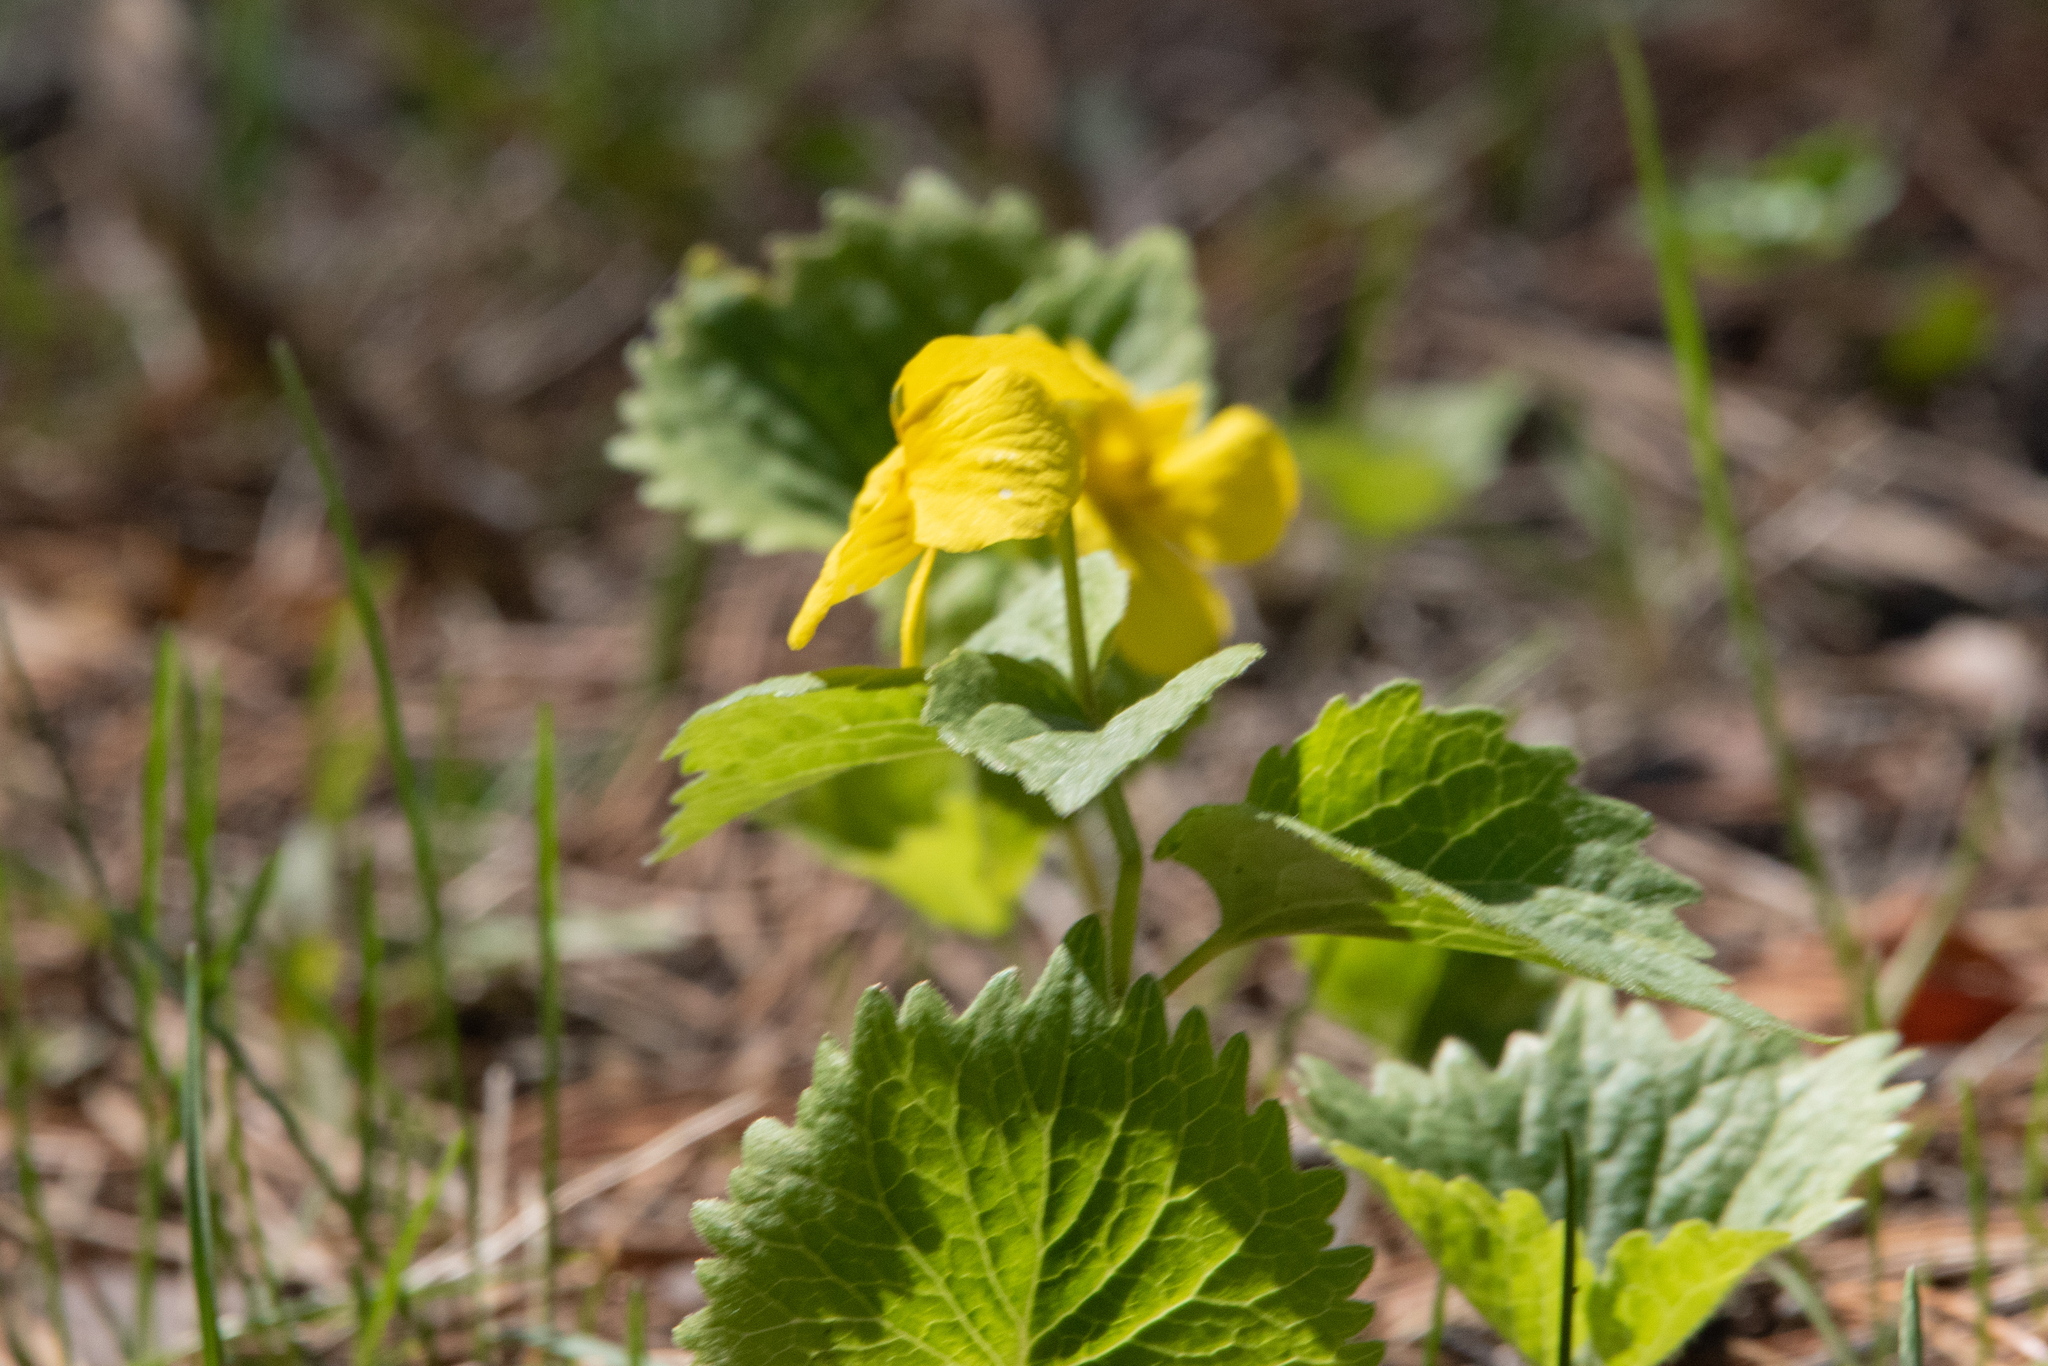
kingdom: Plantae
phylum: Tracheophyta
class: Magnoliopsida
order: Malpighiales
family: Violaceae
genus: Viola
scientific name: Viola uniflora
